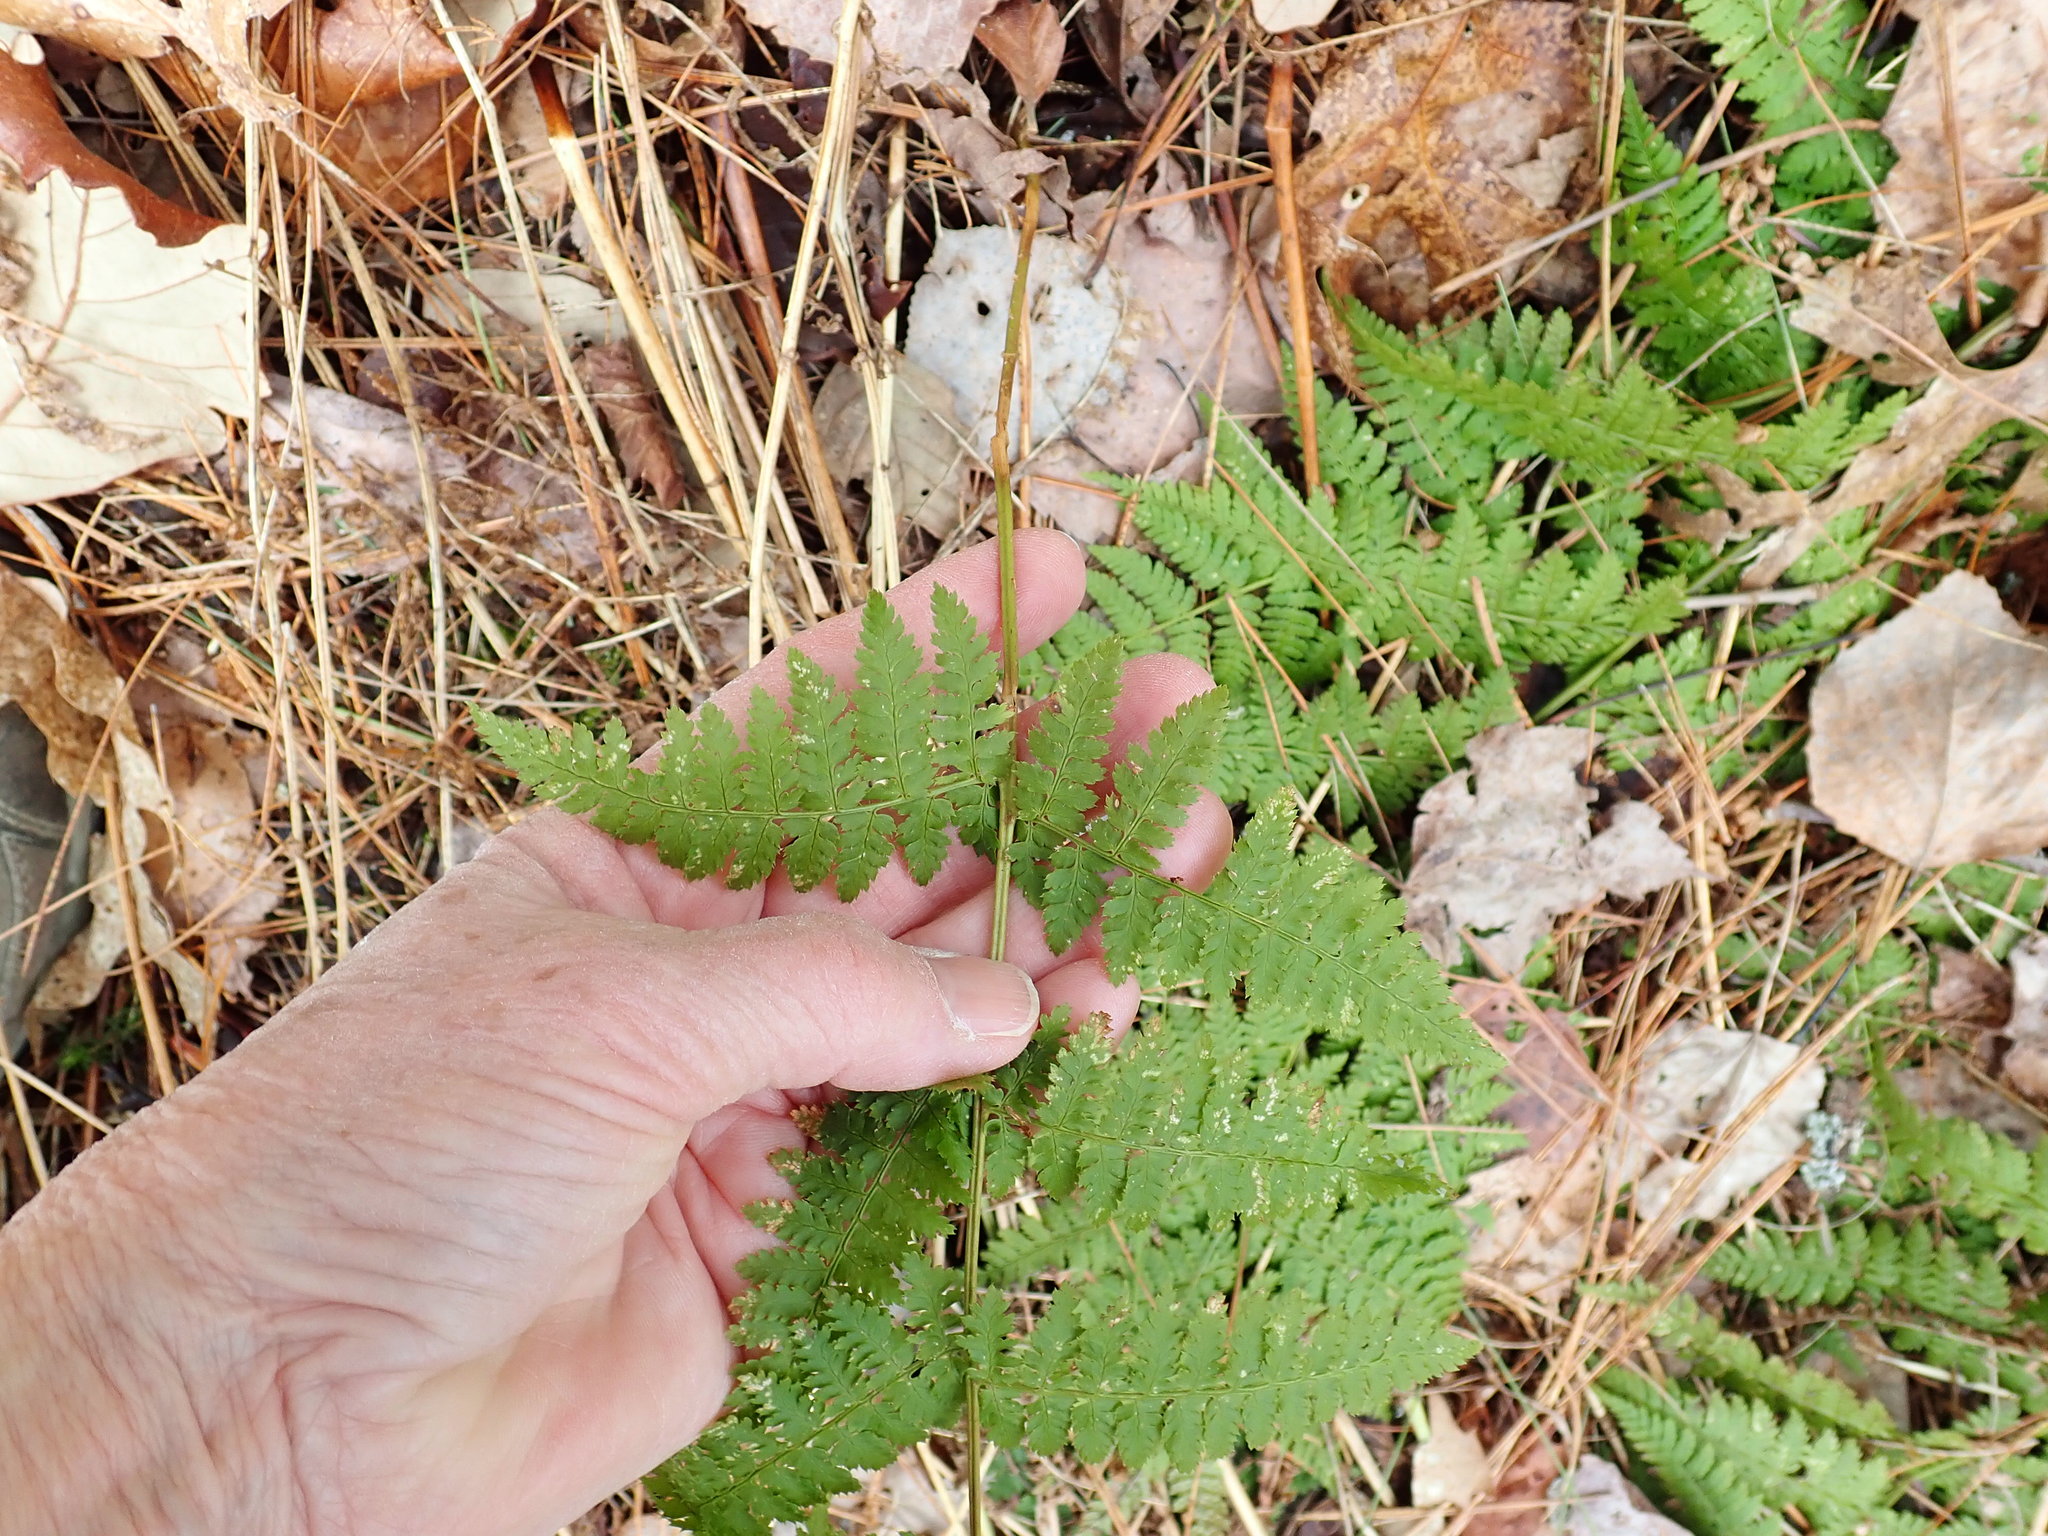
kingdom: Plantae
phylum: Tracheophyta
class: Polypodiopsida
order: Polypodiales
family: Dryopteridaceae
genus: Dryopteris
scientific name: Dryopteris intermedia
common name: Evergreen wood fern
